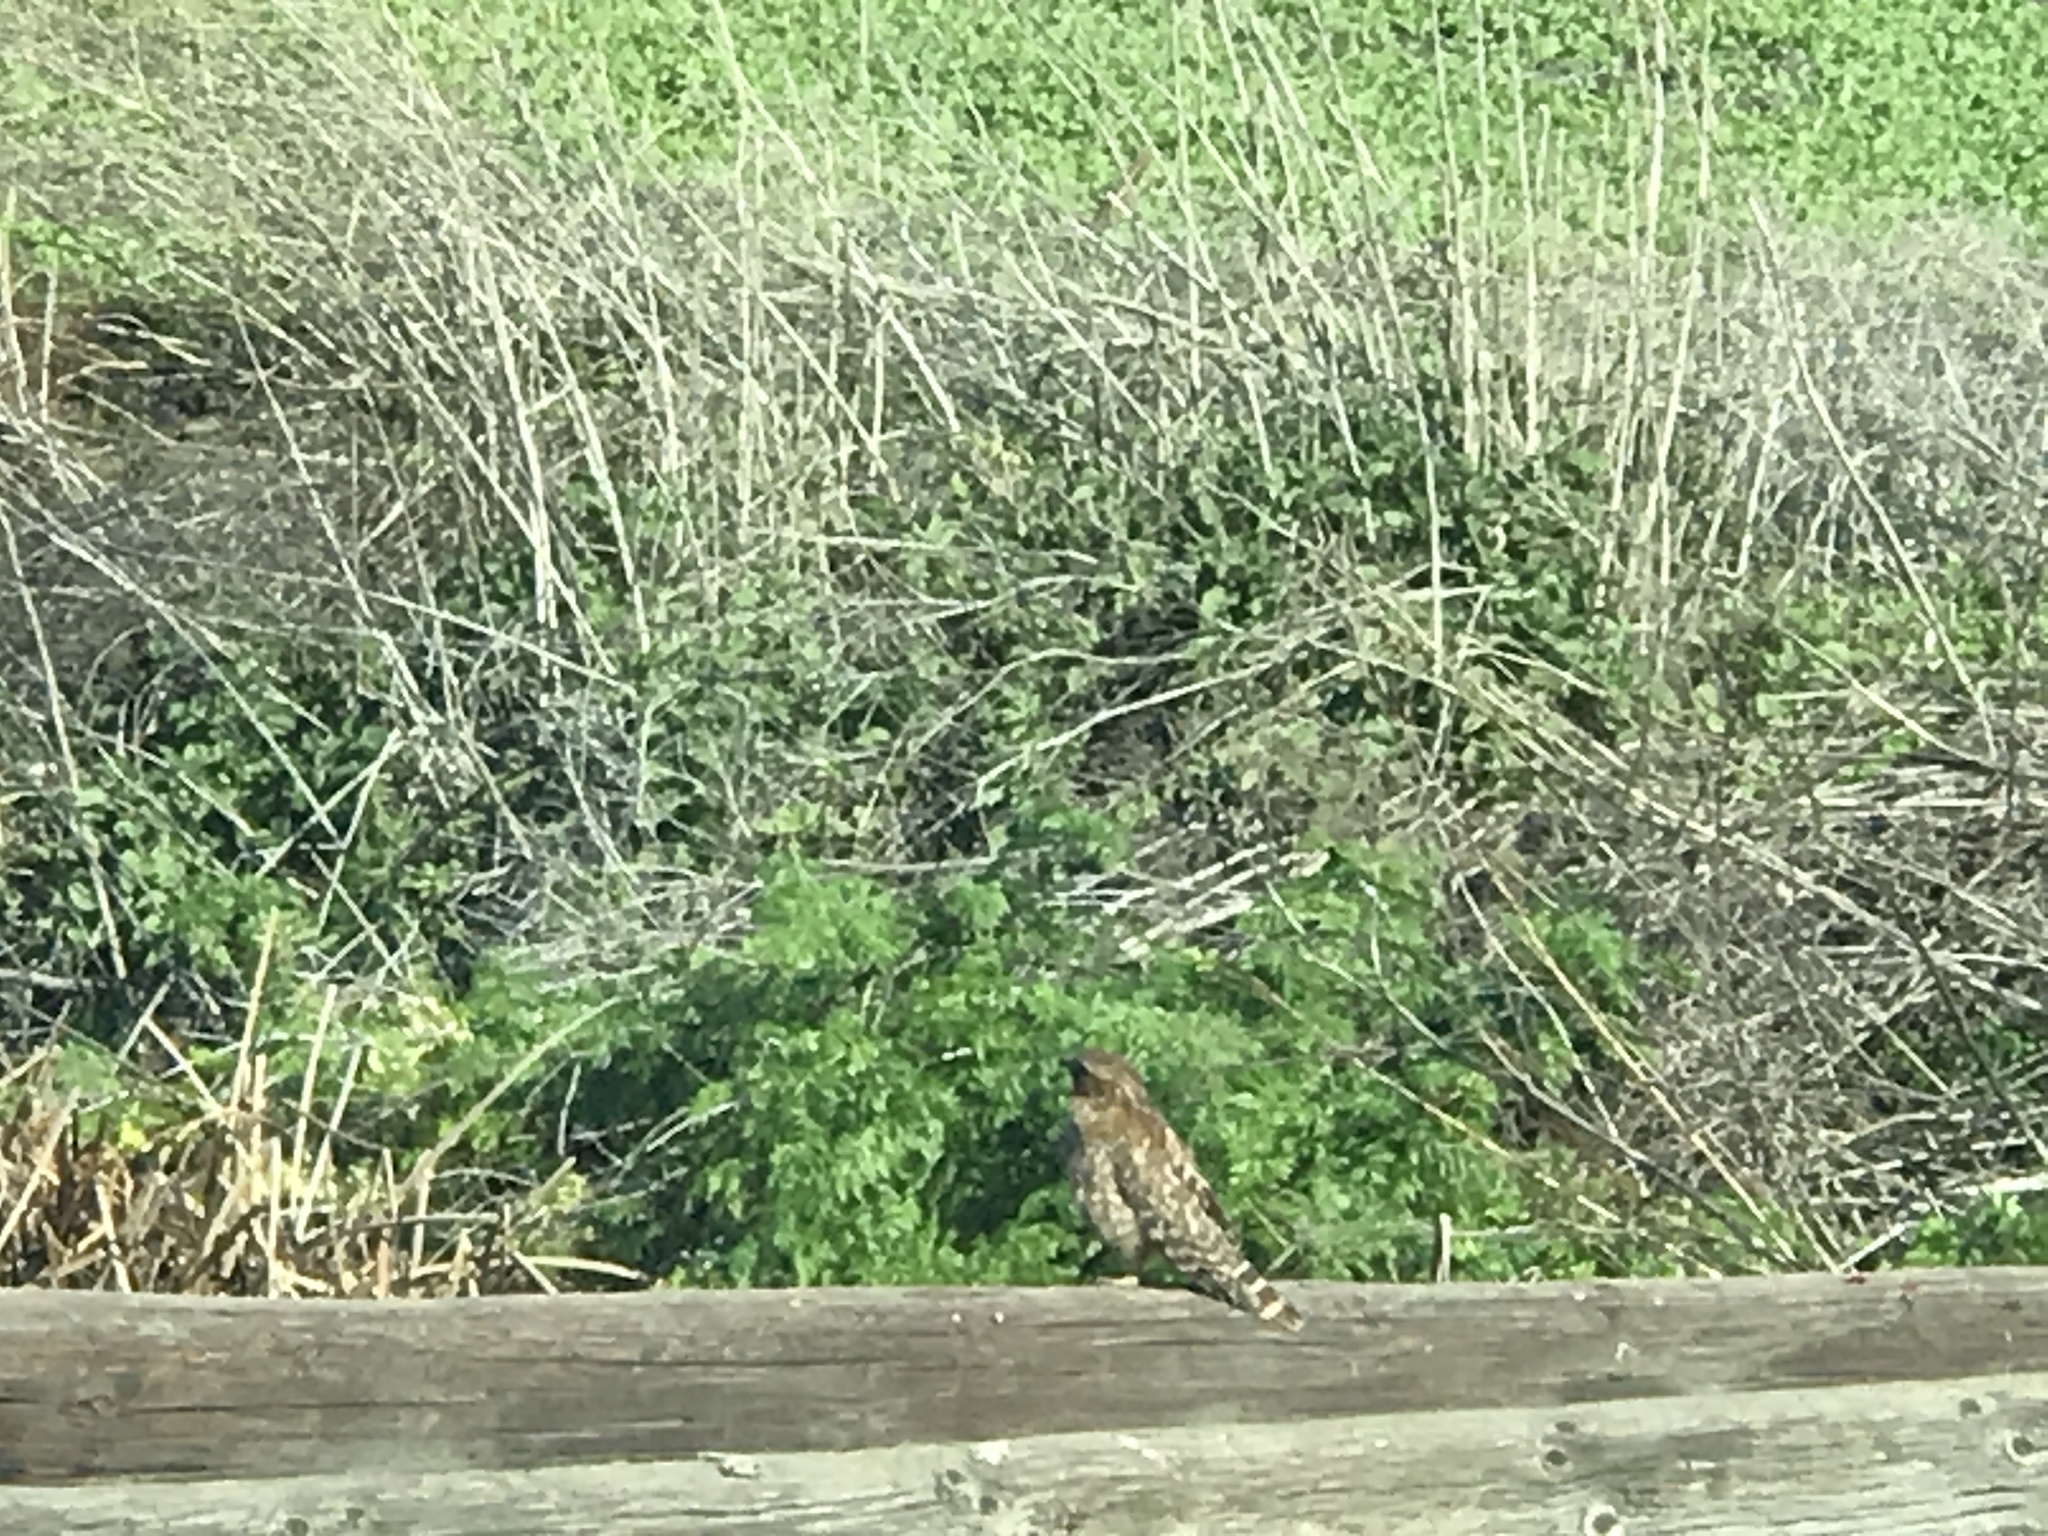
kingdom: Animalia
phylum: Chordata
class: Aves
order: Accipitriformes
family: Accipitridae
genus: Buteo
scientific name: Buteo lineatus
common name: Red-shouldered hawk
